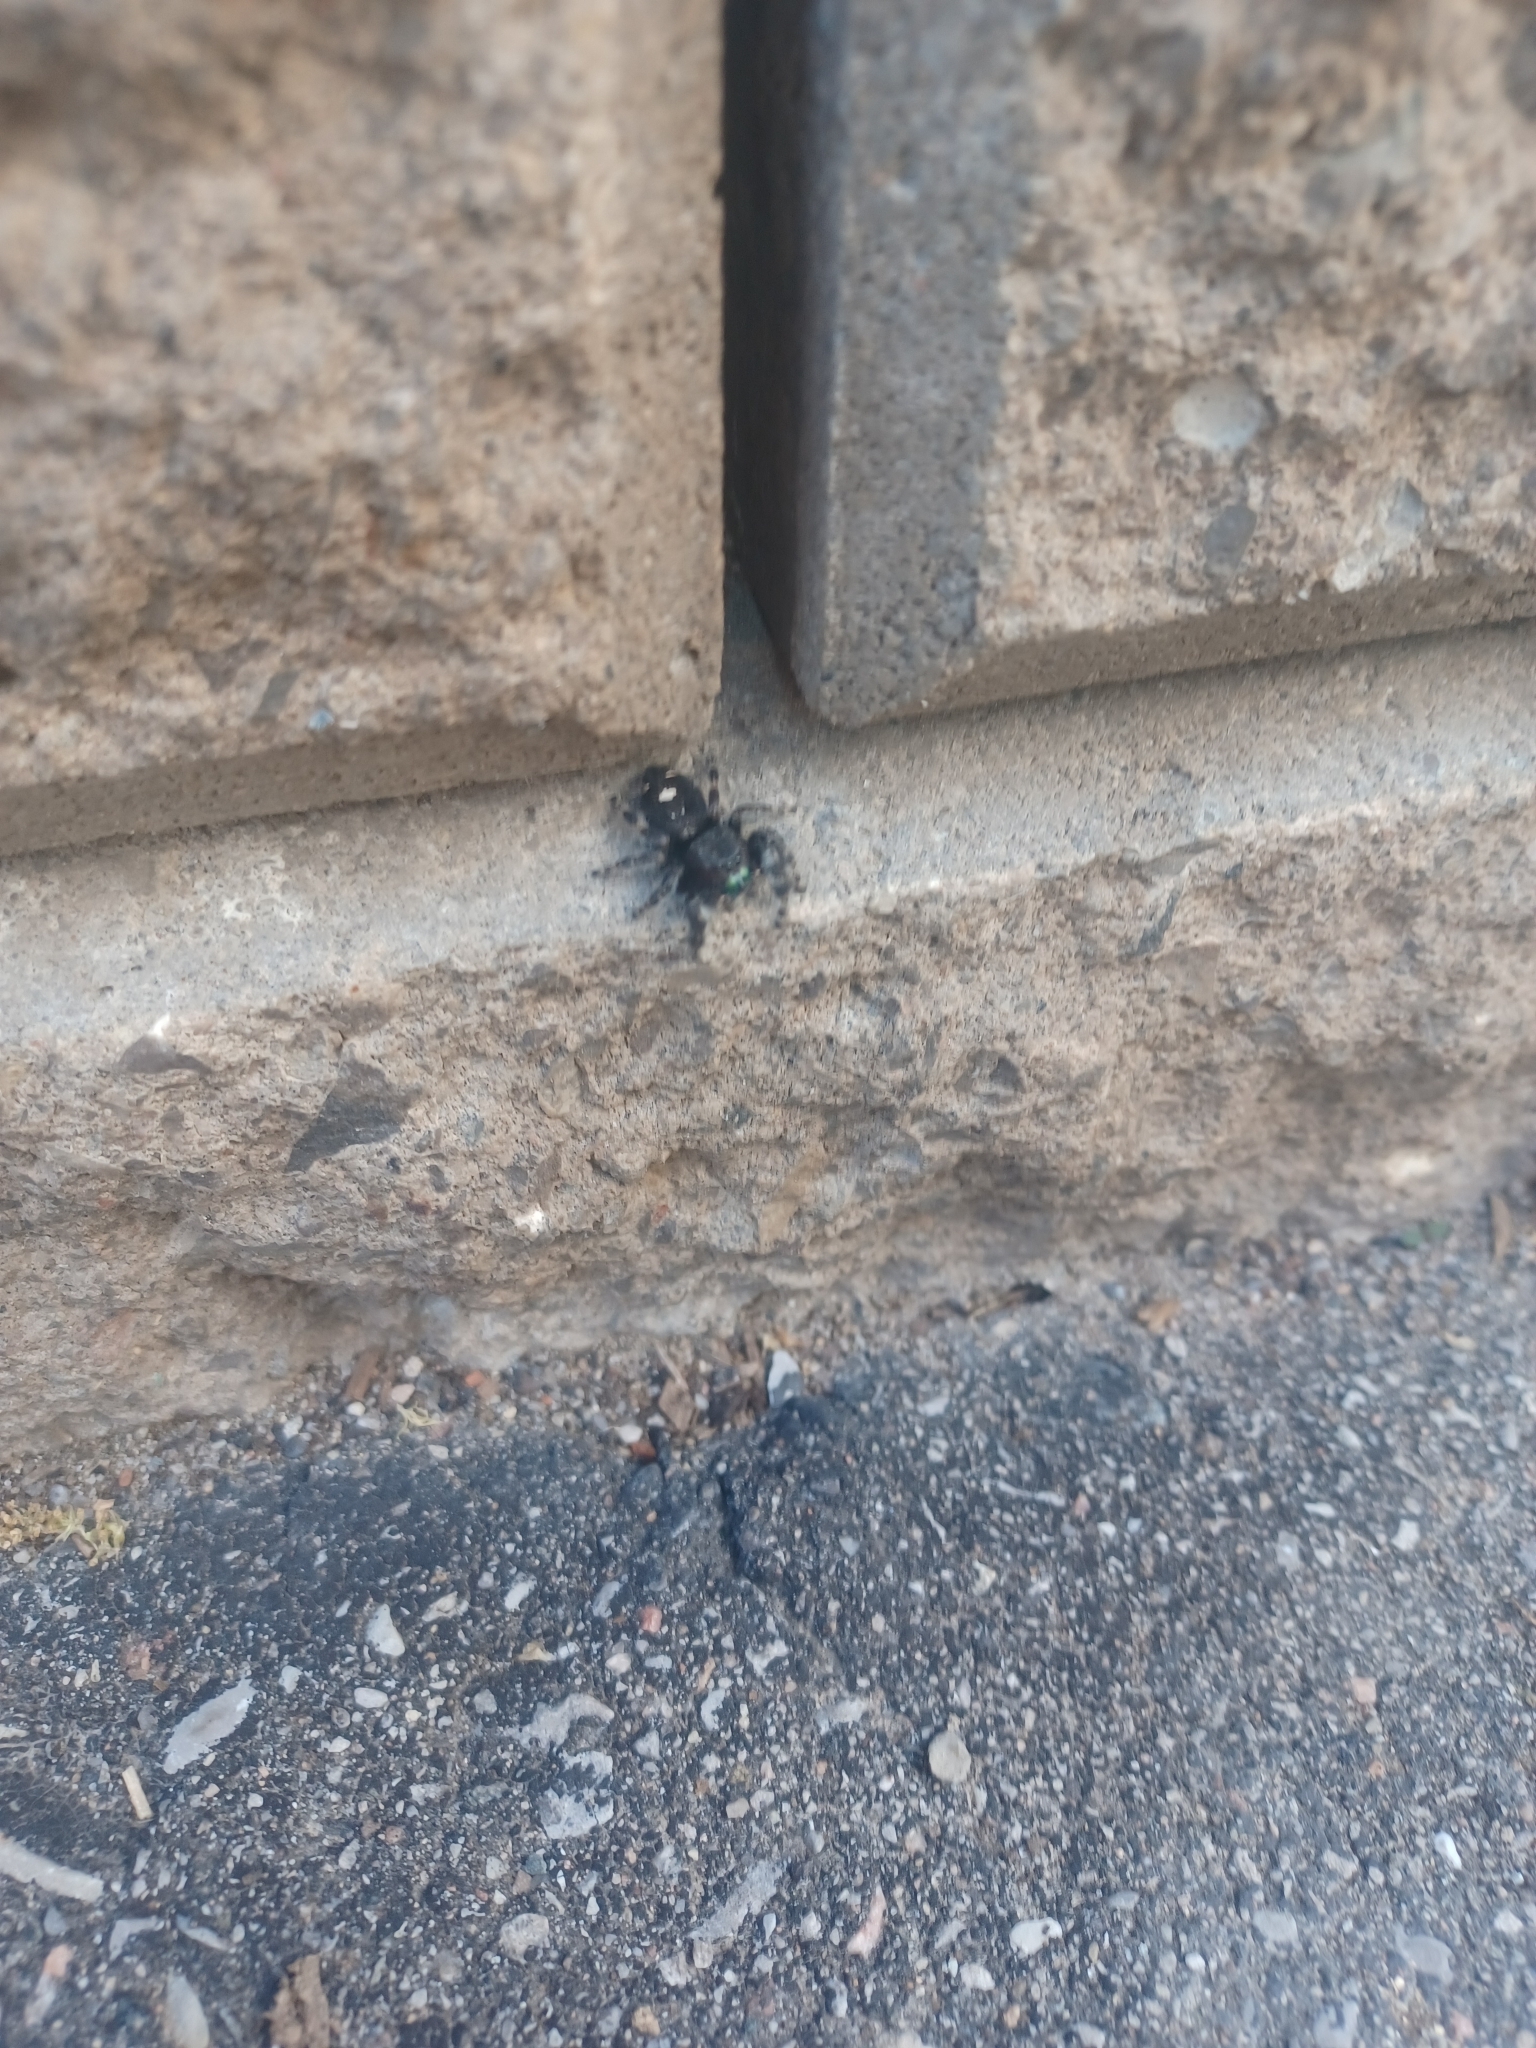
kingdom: Animalia
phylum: Arthropoda
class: Arachnida
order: Araneae
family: Salticidae
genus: Phidippus
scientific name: Phidippus audax
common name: Bold jumper
